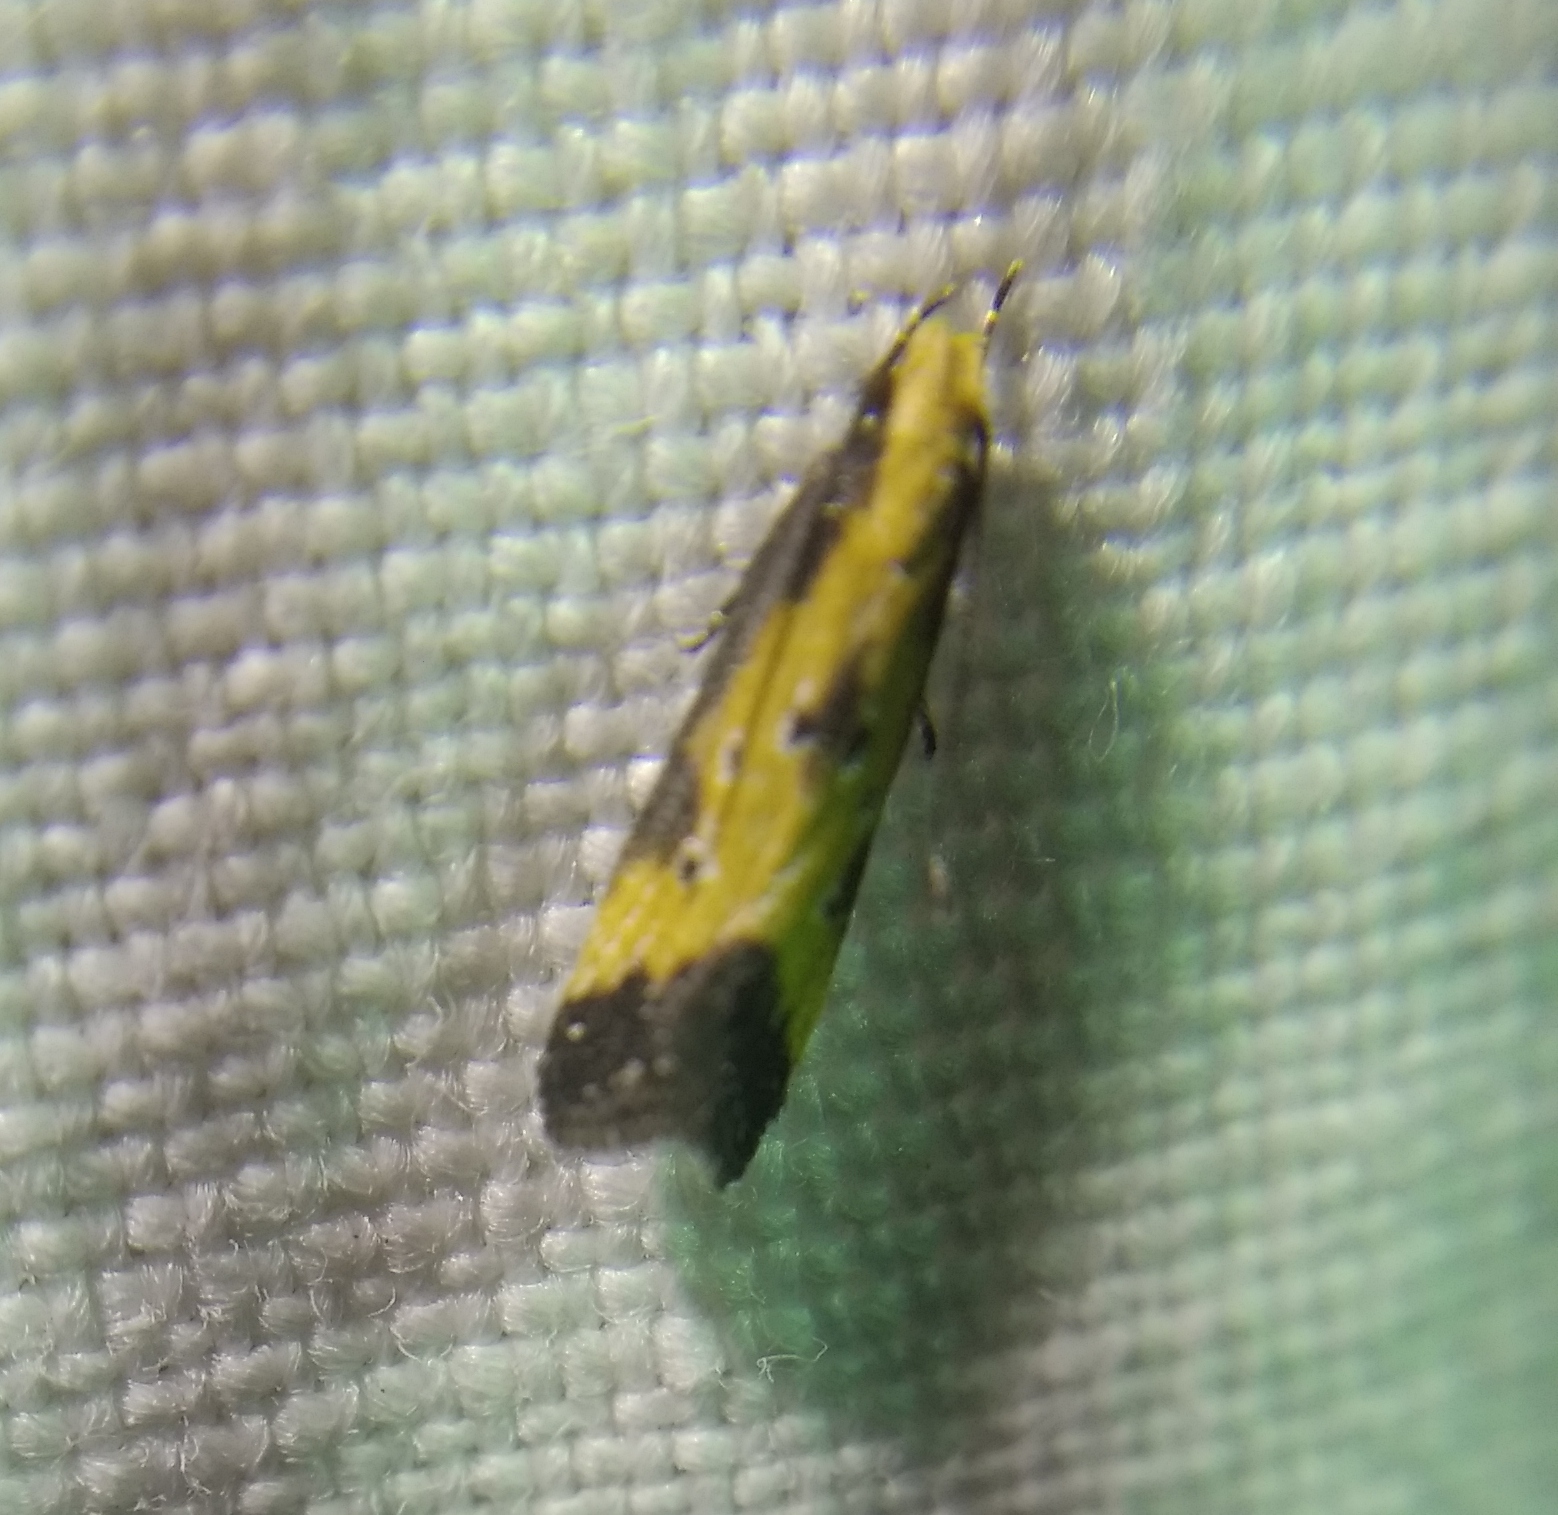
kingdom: Animalia
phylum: Arthropoda
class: Insecta
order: Lepidoptera
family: Gelechiidae
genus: Brachmia
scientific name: Brachmia dimidiella
